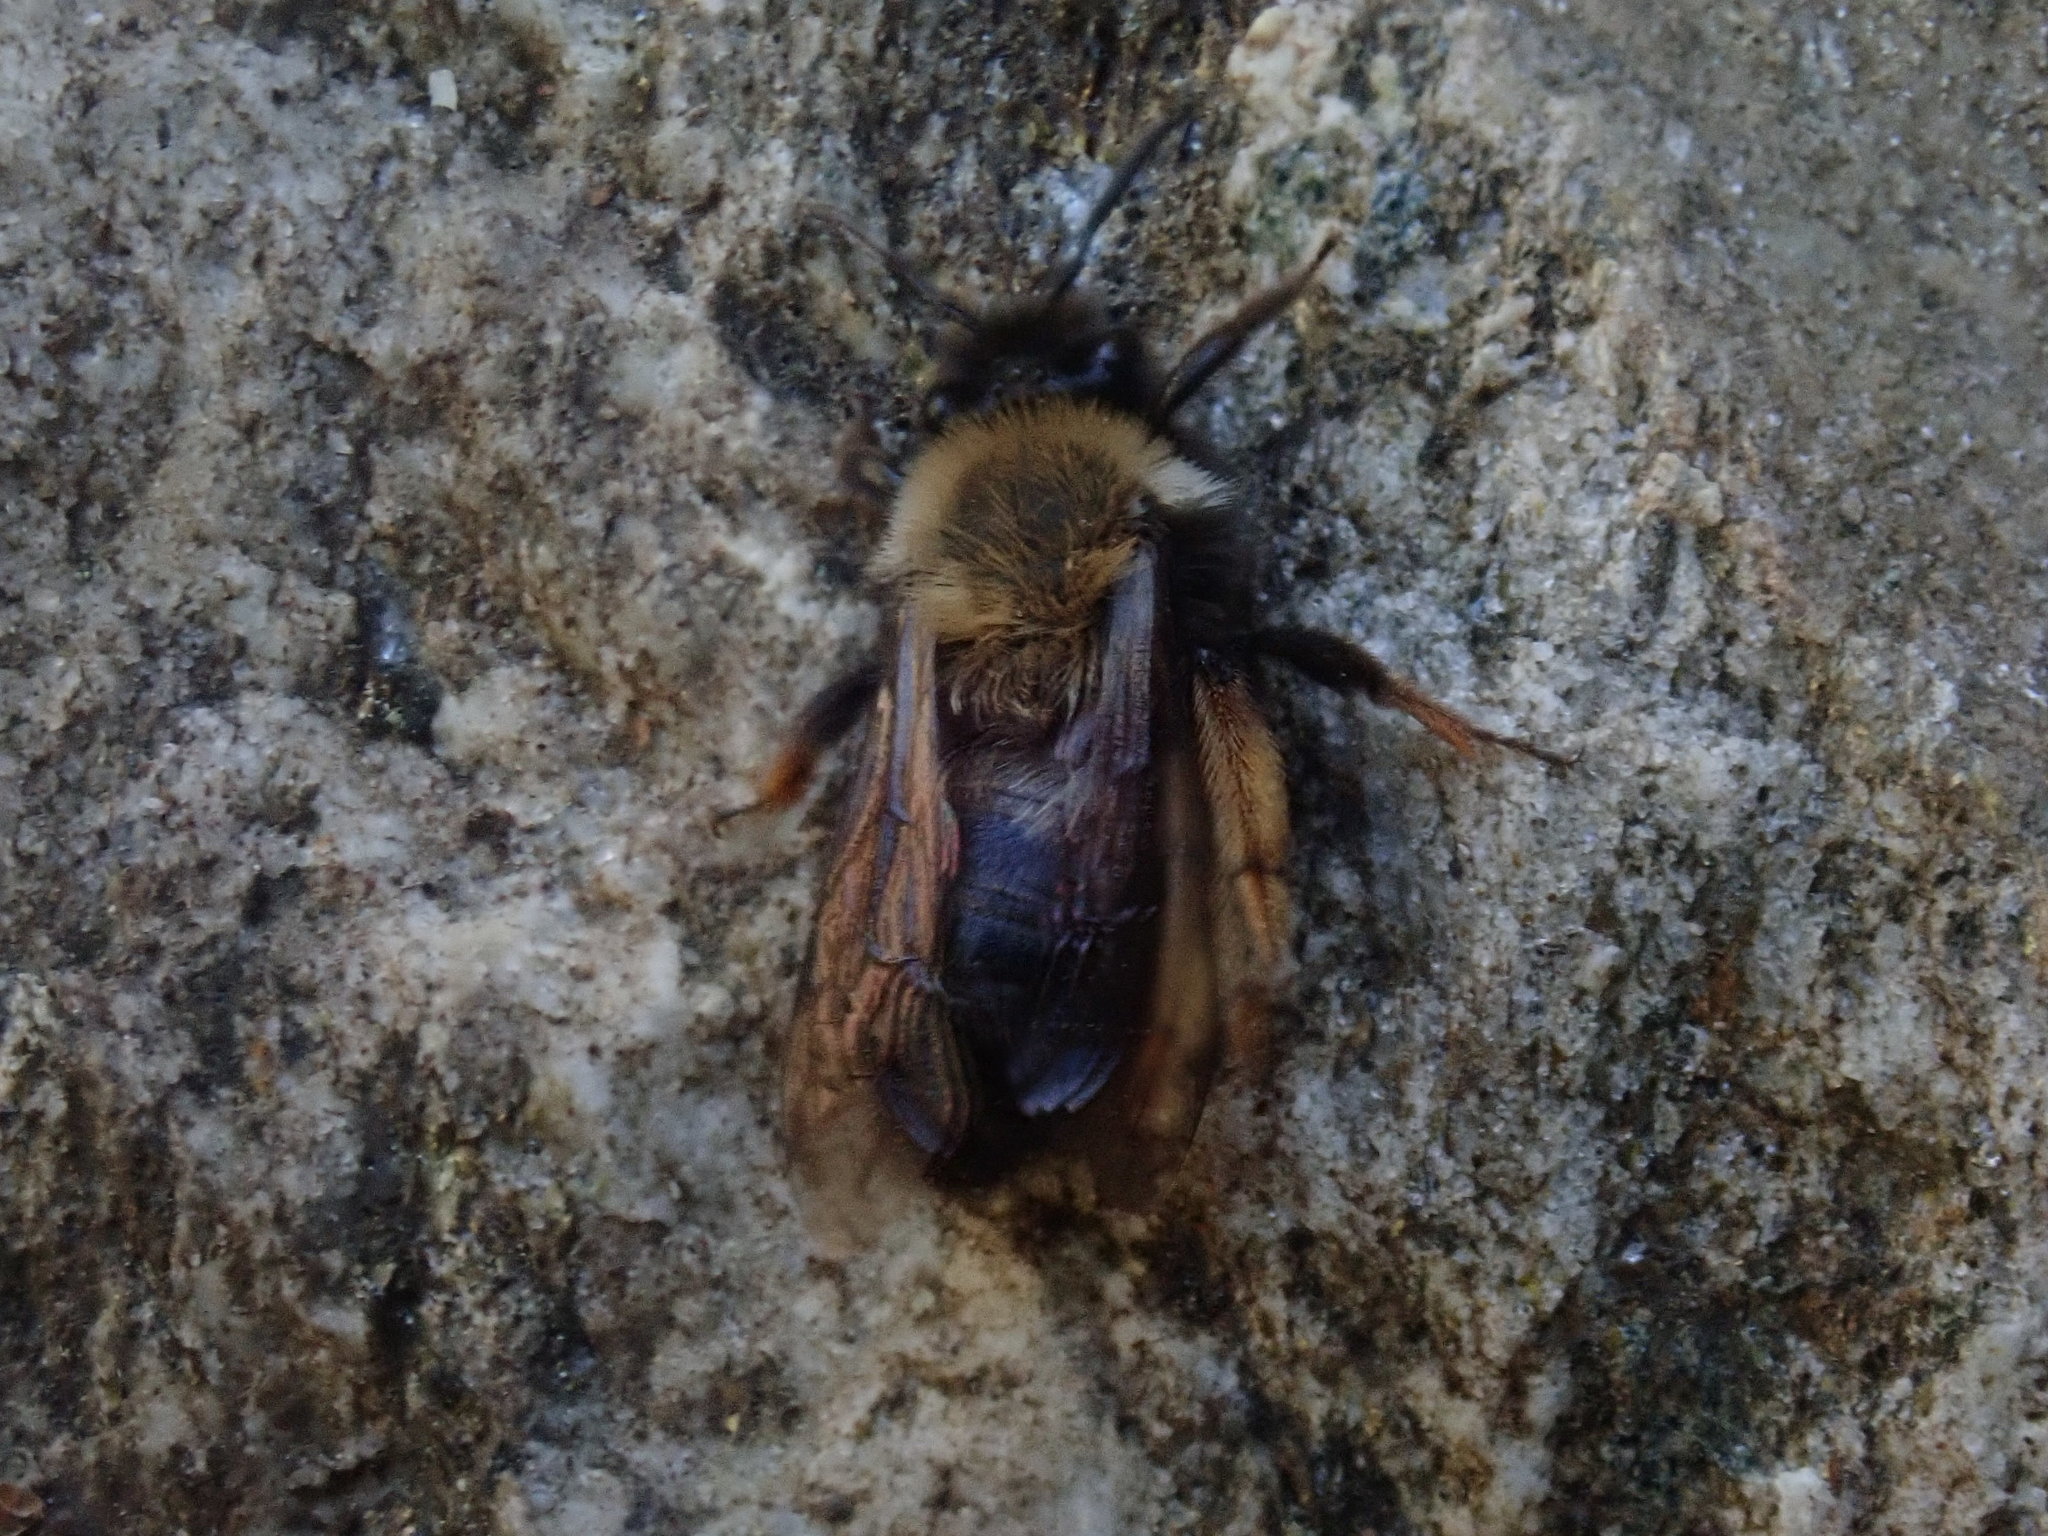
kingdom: Animalia
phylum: Arthropoda
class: Insecta
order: Hymenoptera
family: Andrenidae
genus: Andrena
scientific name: Andrena clarkella
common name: Clarke's mining bee
